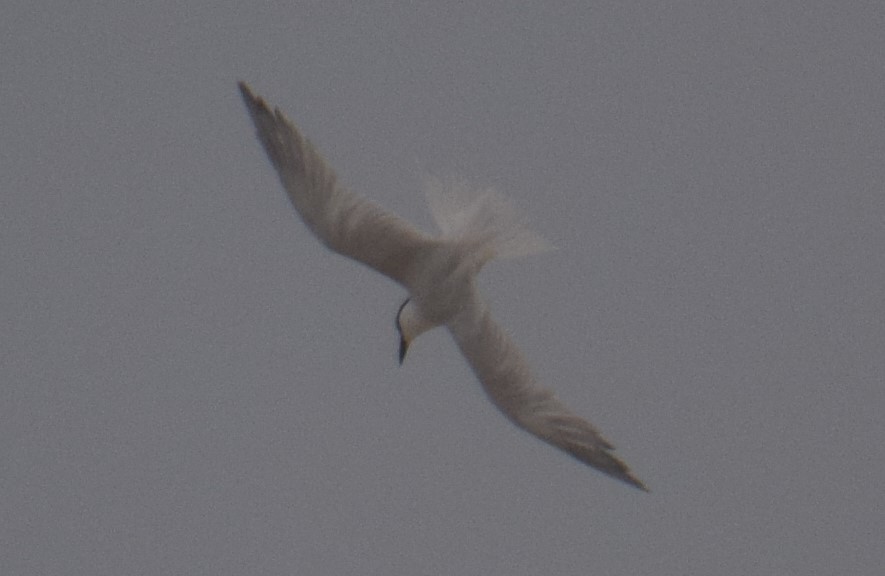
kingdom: Animalia
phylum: Chordata
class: Aves
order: Charadriiformes
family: Laridae
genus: Gelochelidon
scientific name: Gelochelidon macrotarsa
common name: Australian tern
